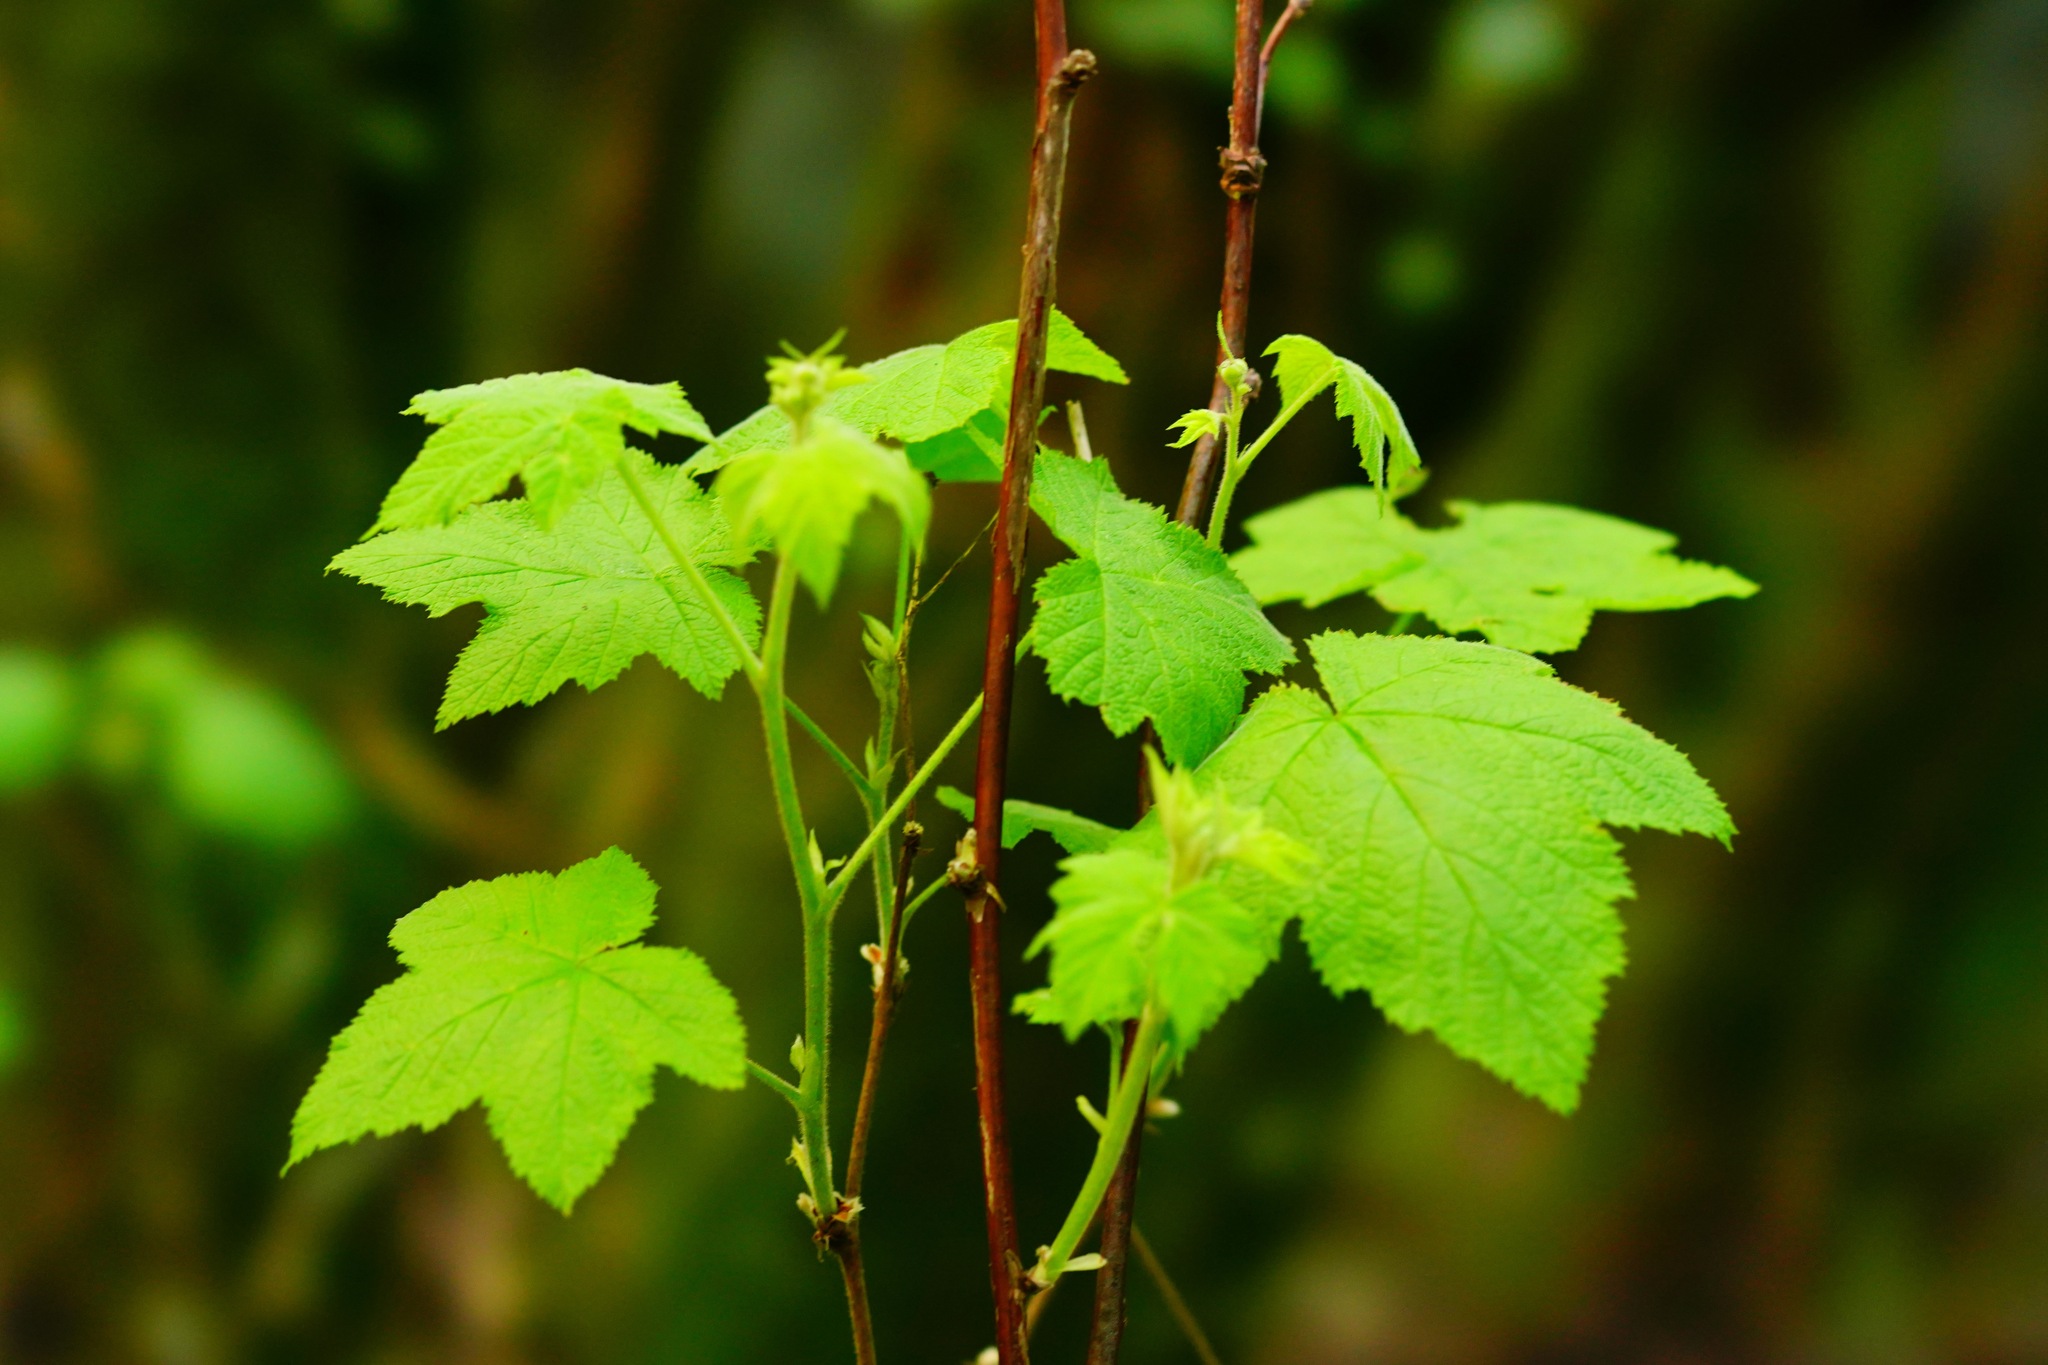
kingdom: Plantae
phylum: Tracheophyta
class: Magnoliopsida
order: Rosales
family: Rosaceae
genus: Rubus
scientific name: Rubus parviflorus
